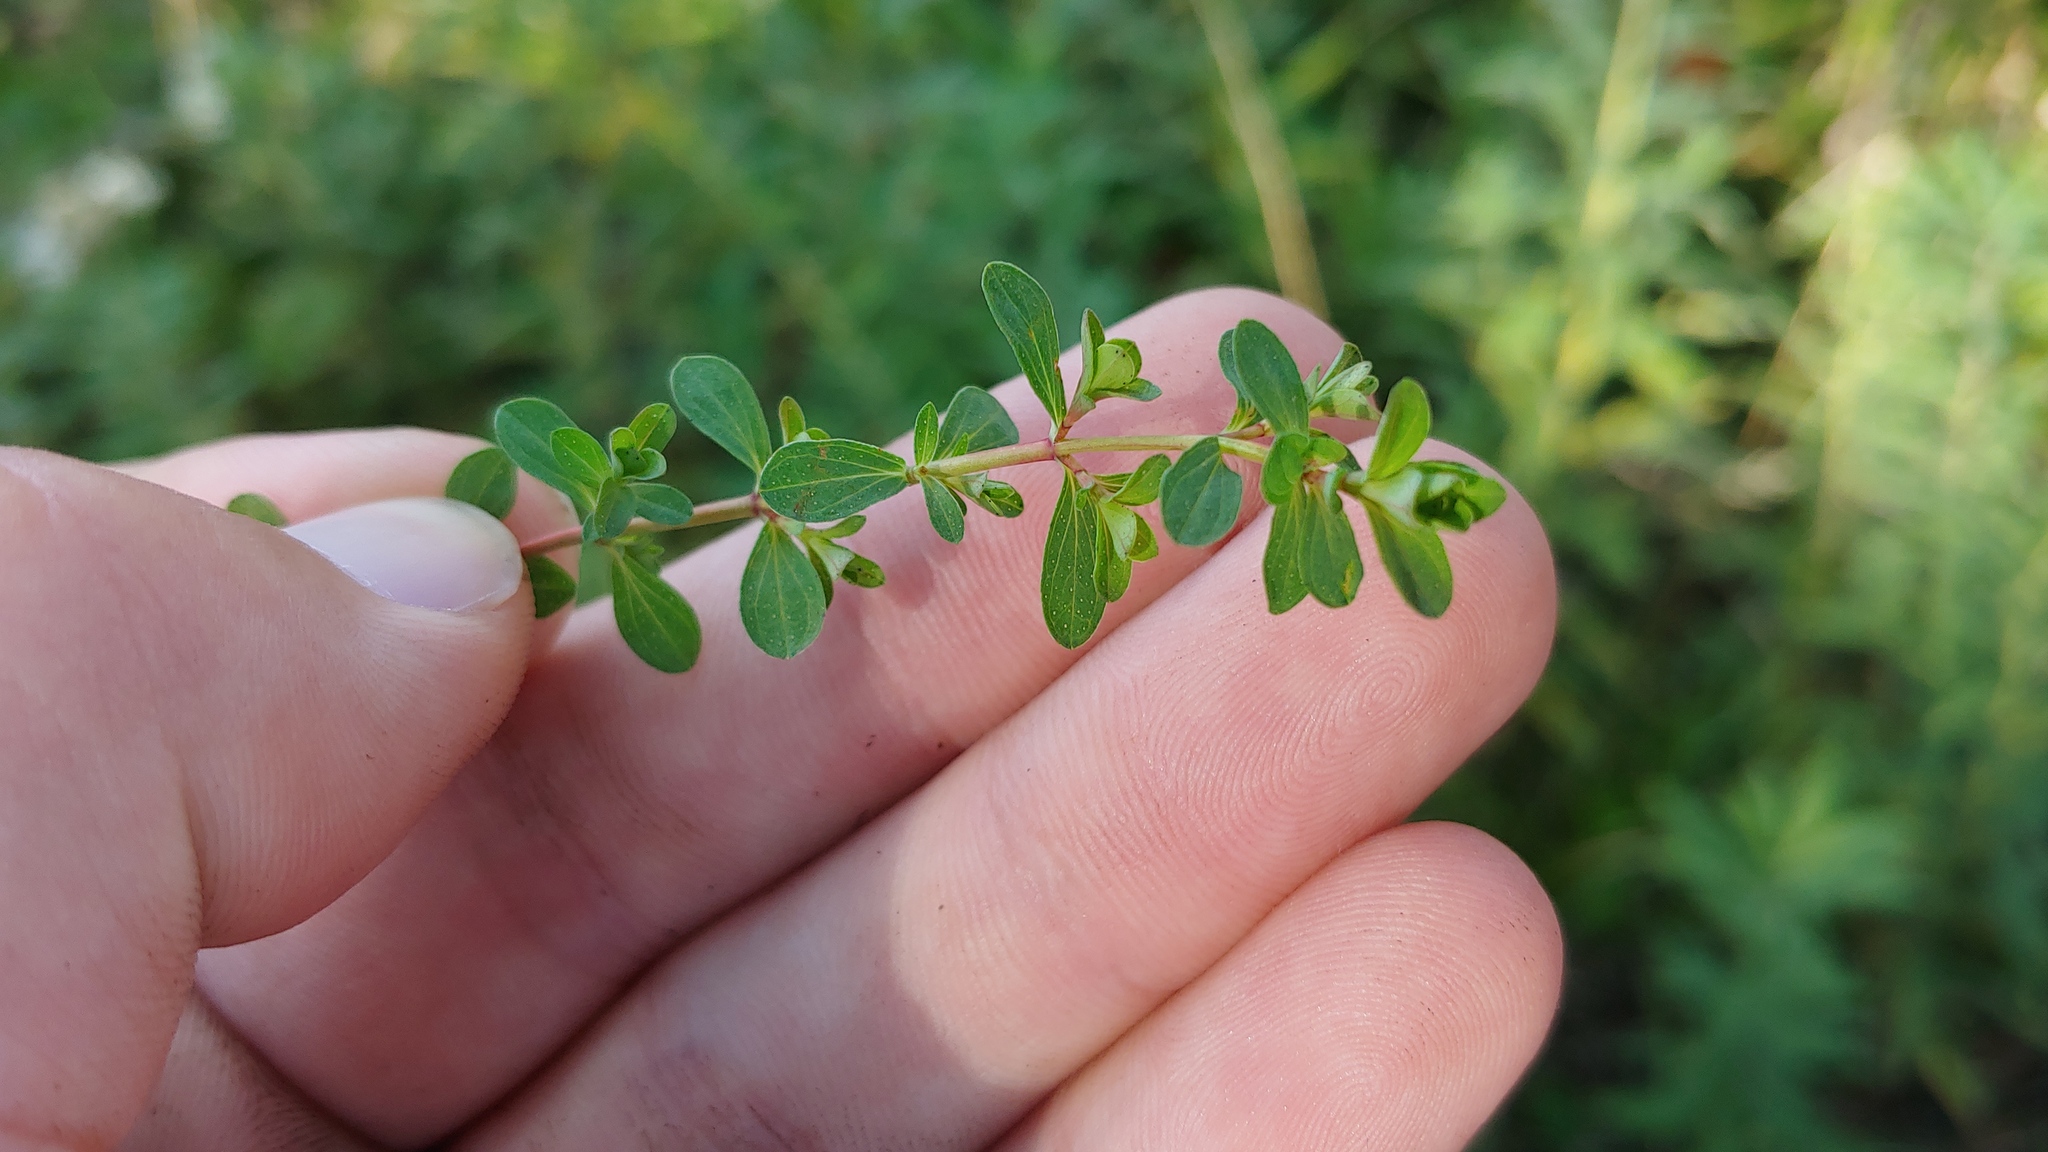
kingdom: Plantae
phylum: Tracheophyta
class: Magnoliopsida
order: Malpighiales
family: Hypericaceae
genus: Hypericum
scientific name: Hypericum perforatum
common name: Common st. johnswort
